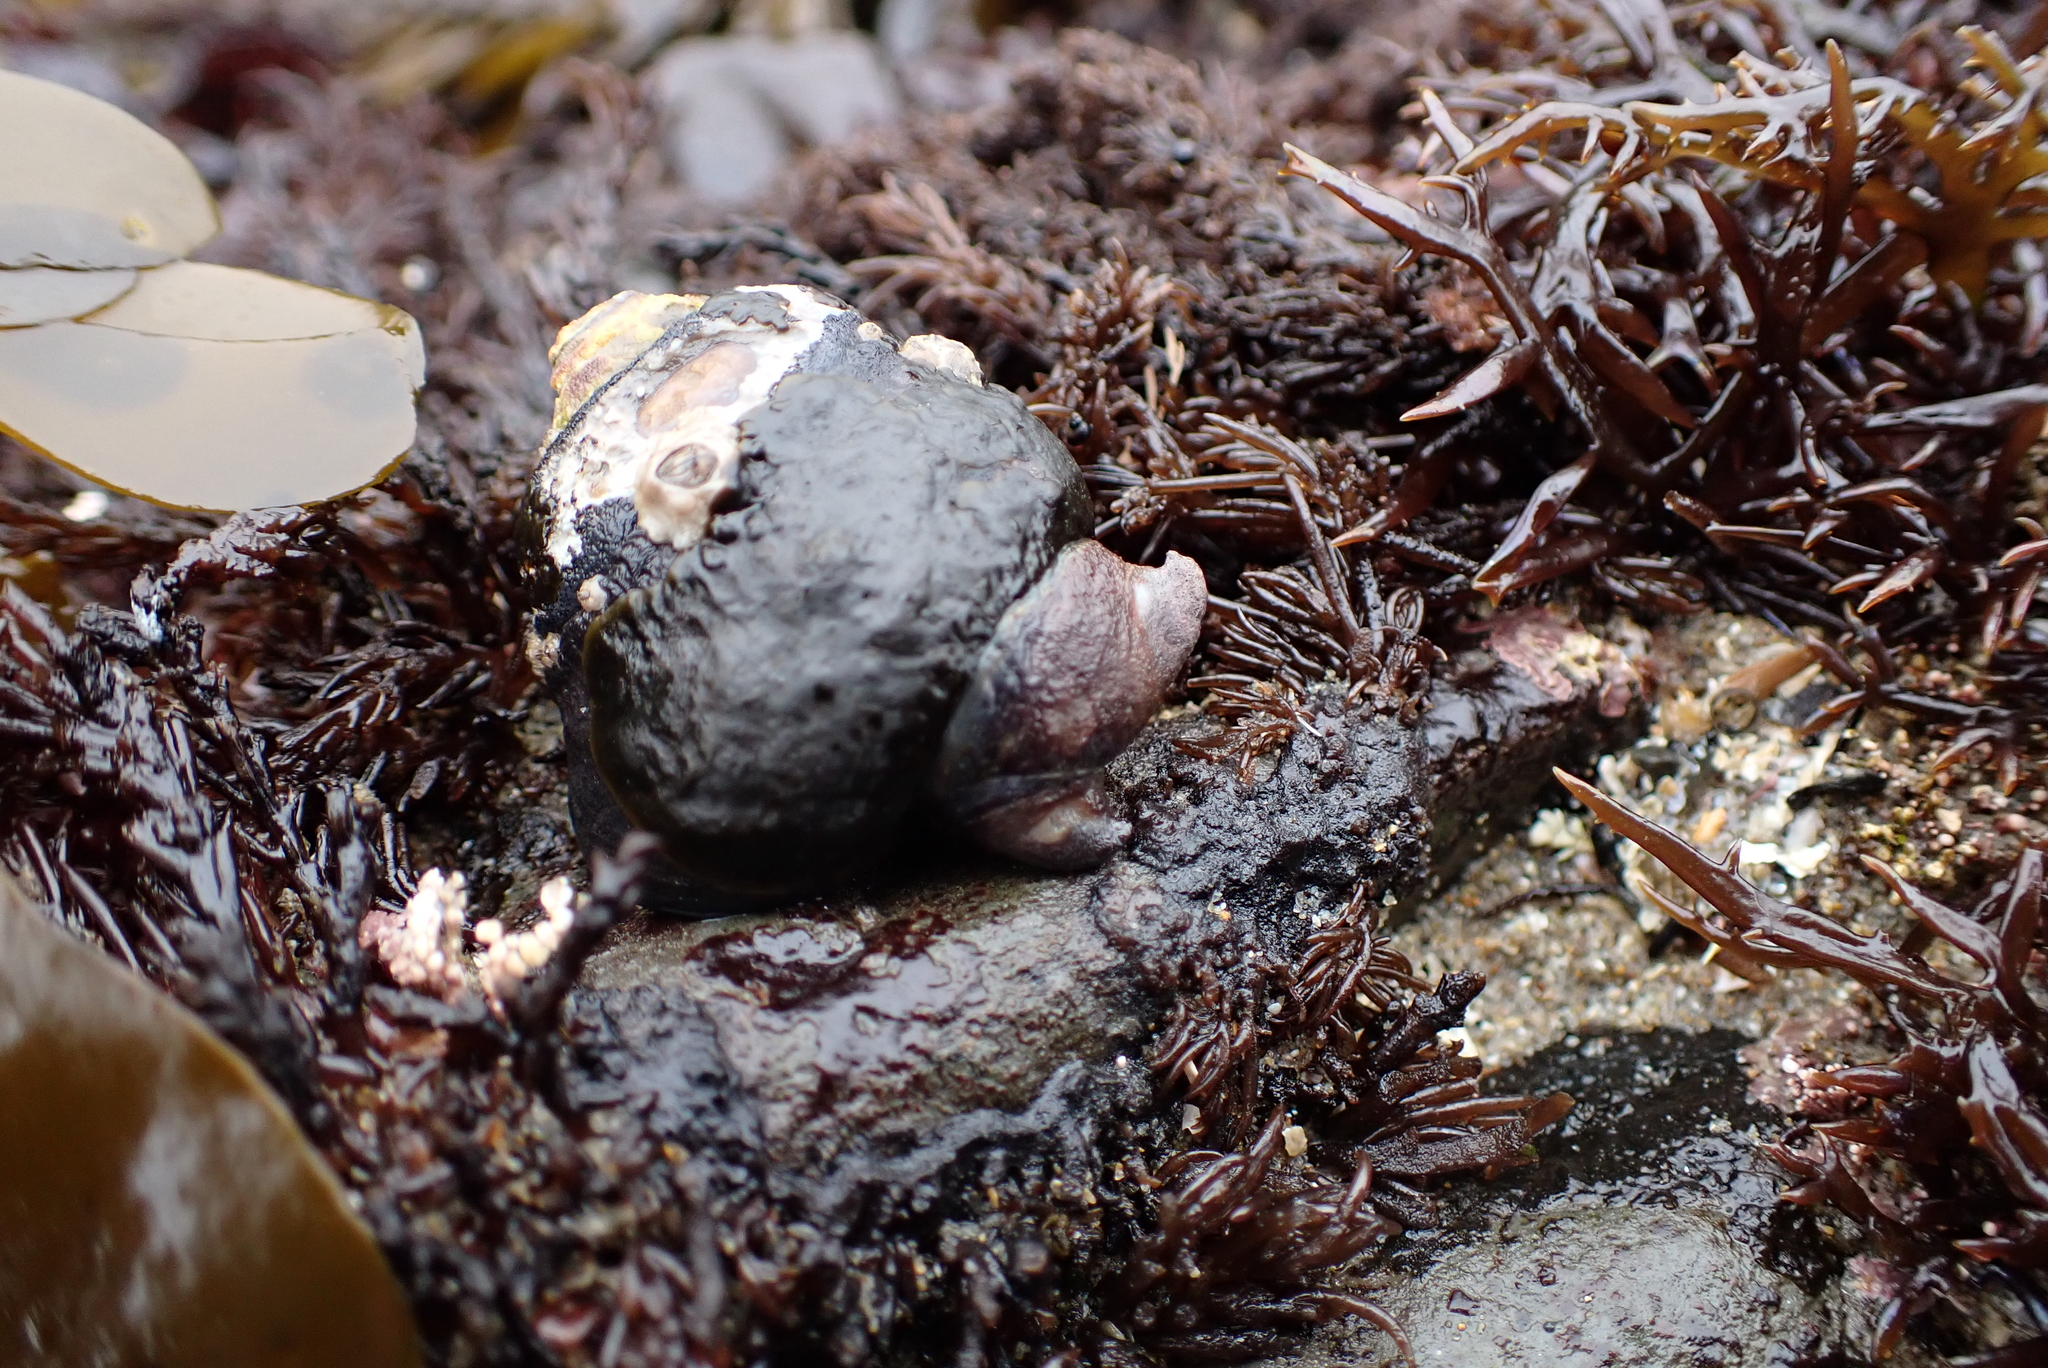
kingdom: Animalia
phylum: Mollusca
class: Gastropoda
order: Trochida
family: Tegulidae
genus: Tegula
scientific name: Tegula funebralis
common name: Black tegula
